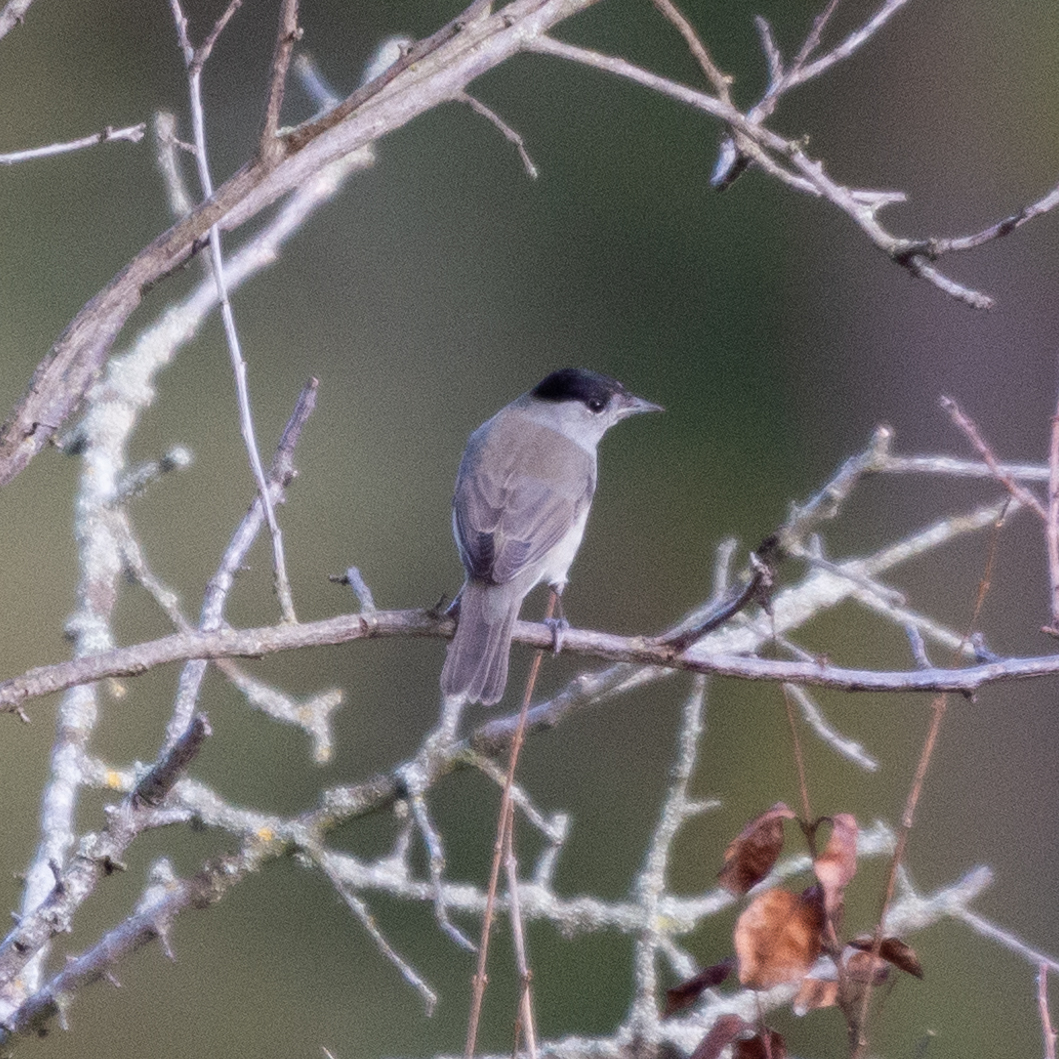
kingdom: Animalia
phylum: Chordata
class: Aves
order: Passeriformes
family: Sylviidae
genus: Sylvia
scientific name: Sylvia atricapilla
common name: Eurasian blackcap
